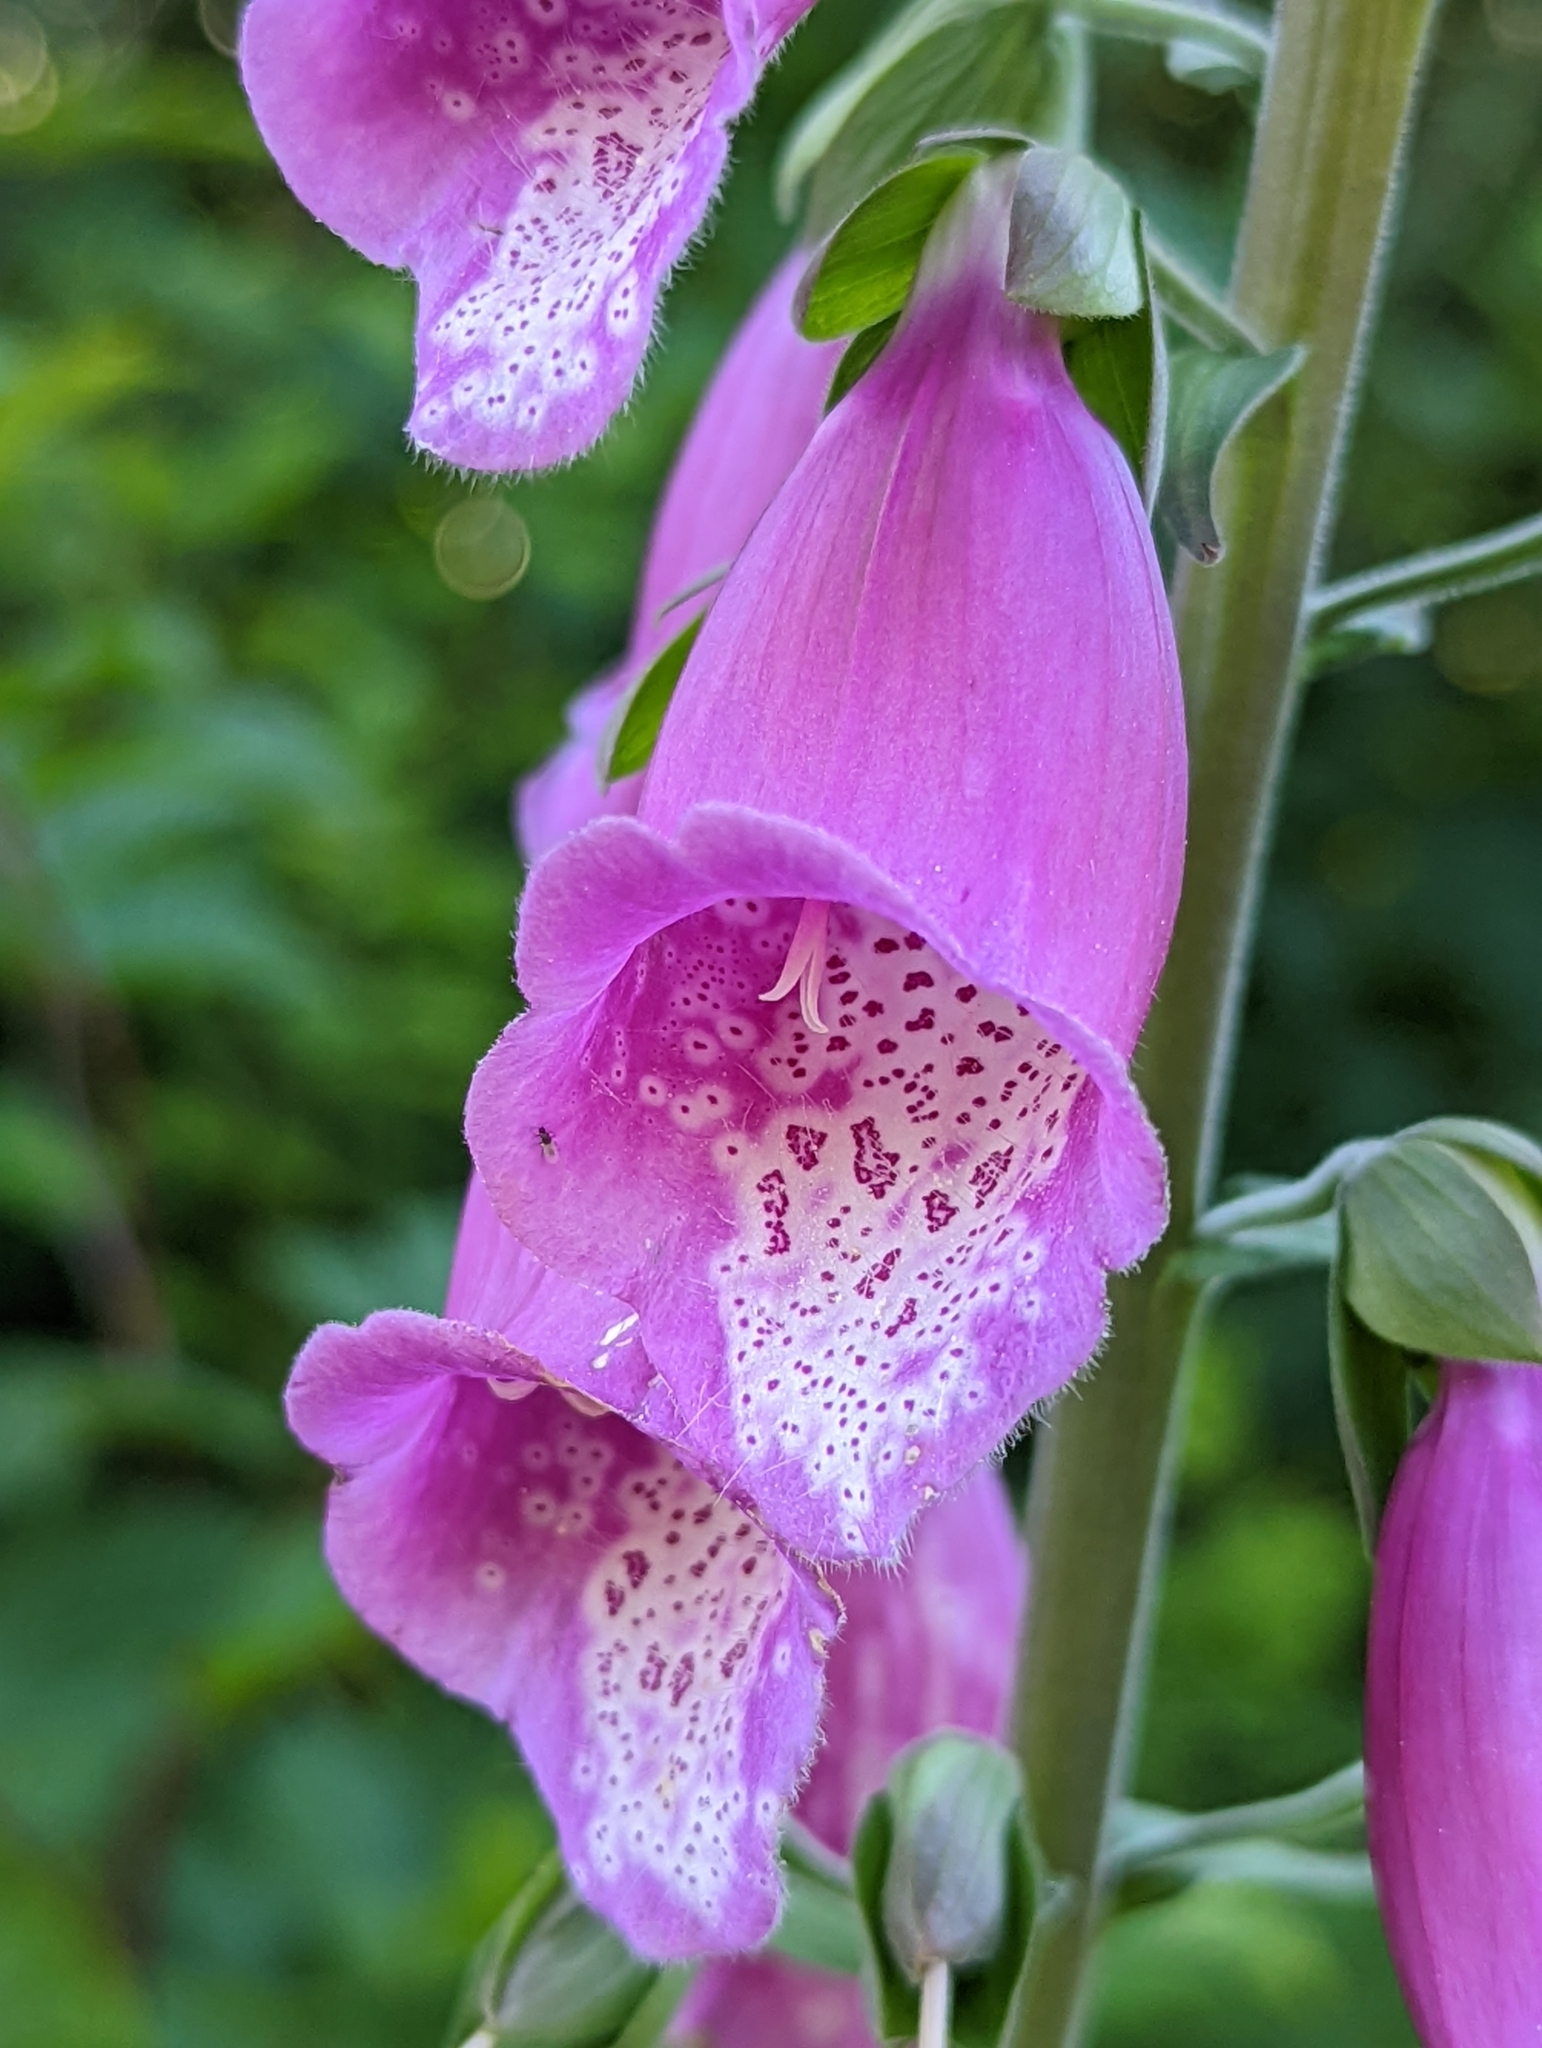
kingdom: Plantae
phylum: Tracheophyta
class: Magnoliopsida
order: Lamiales
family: Plantaginaceae
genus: Digitalis
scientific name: Digitalis purpurea
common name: Foxglove
